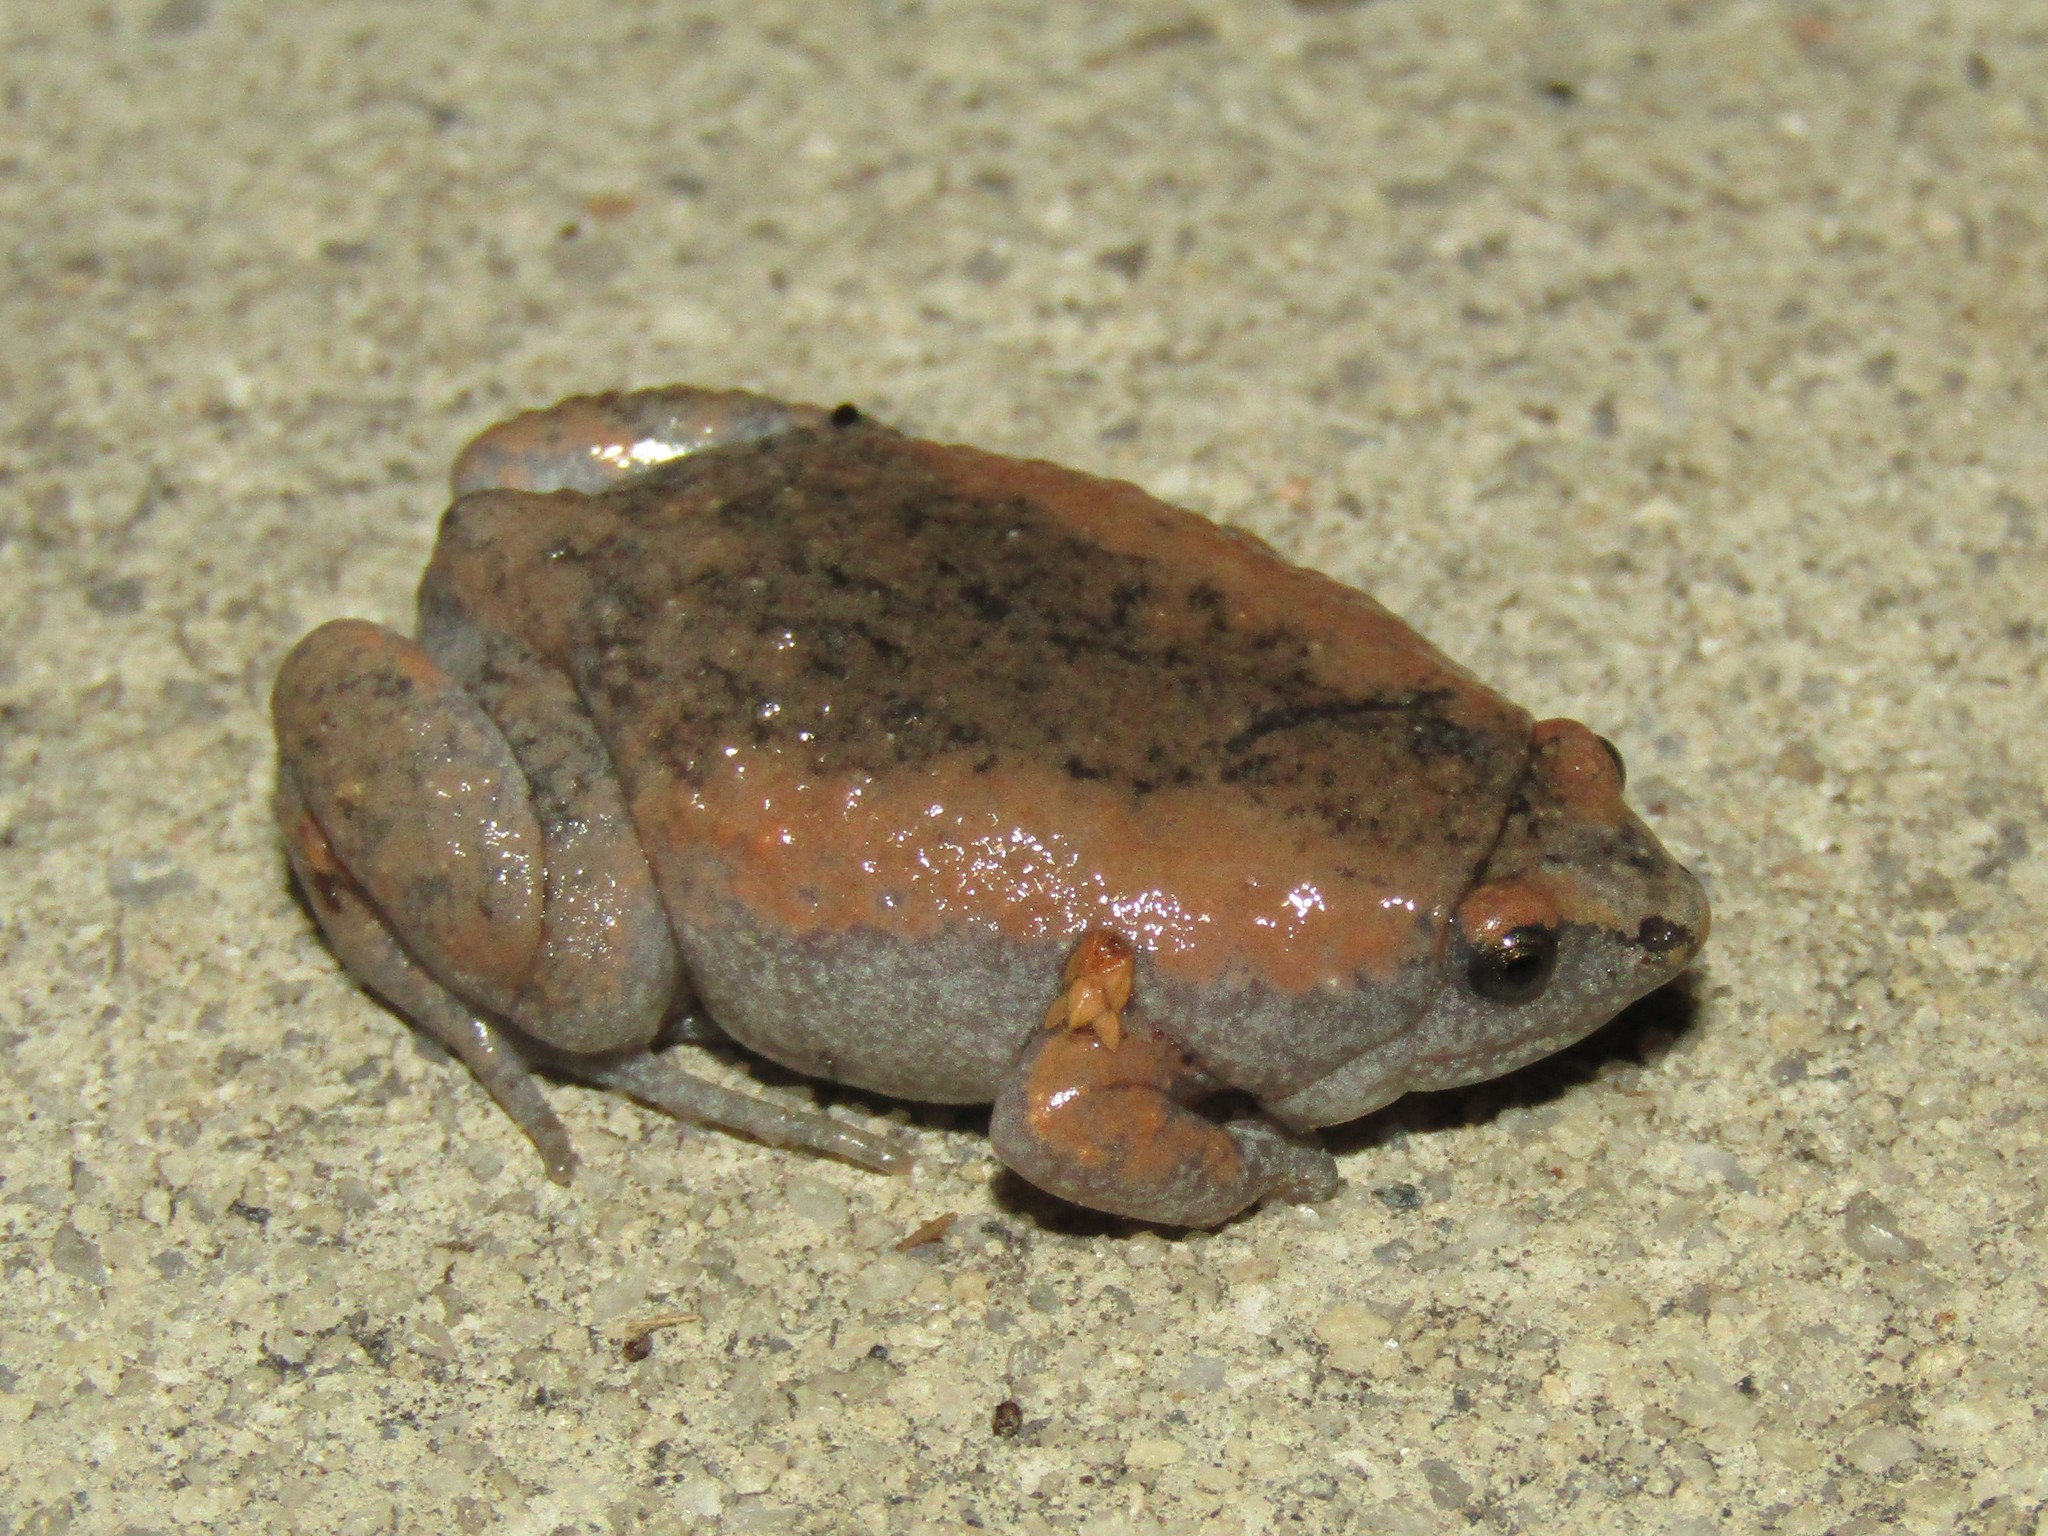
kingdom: Animalia
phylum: Chordata
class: Amphibia
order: Anura
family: Microhylidae
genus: Gastrophryne
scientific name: Gastrophryne carolinensis
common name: Eastern narrowmouth toad
